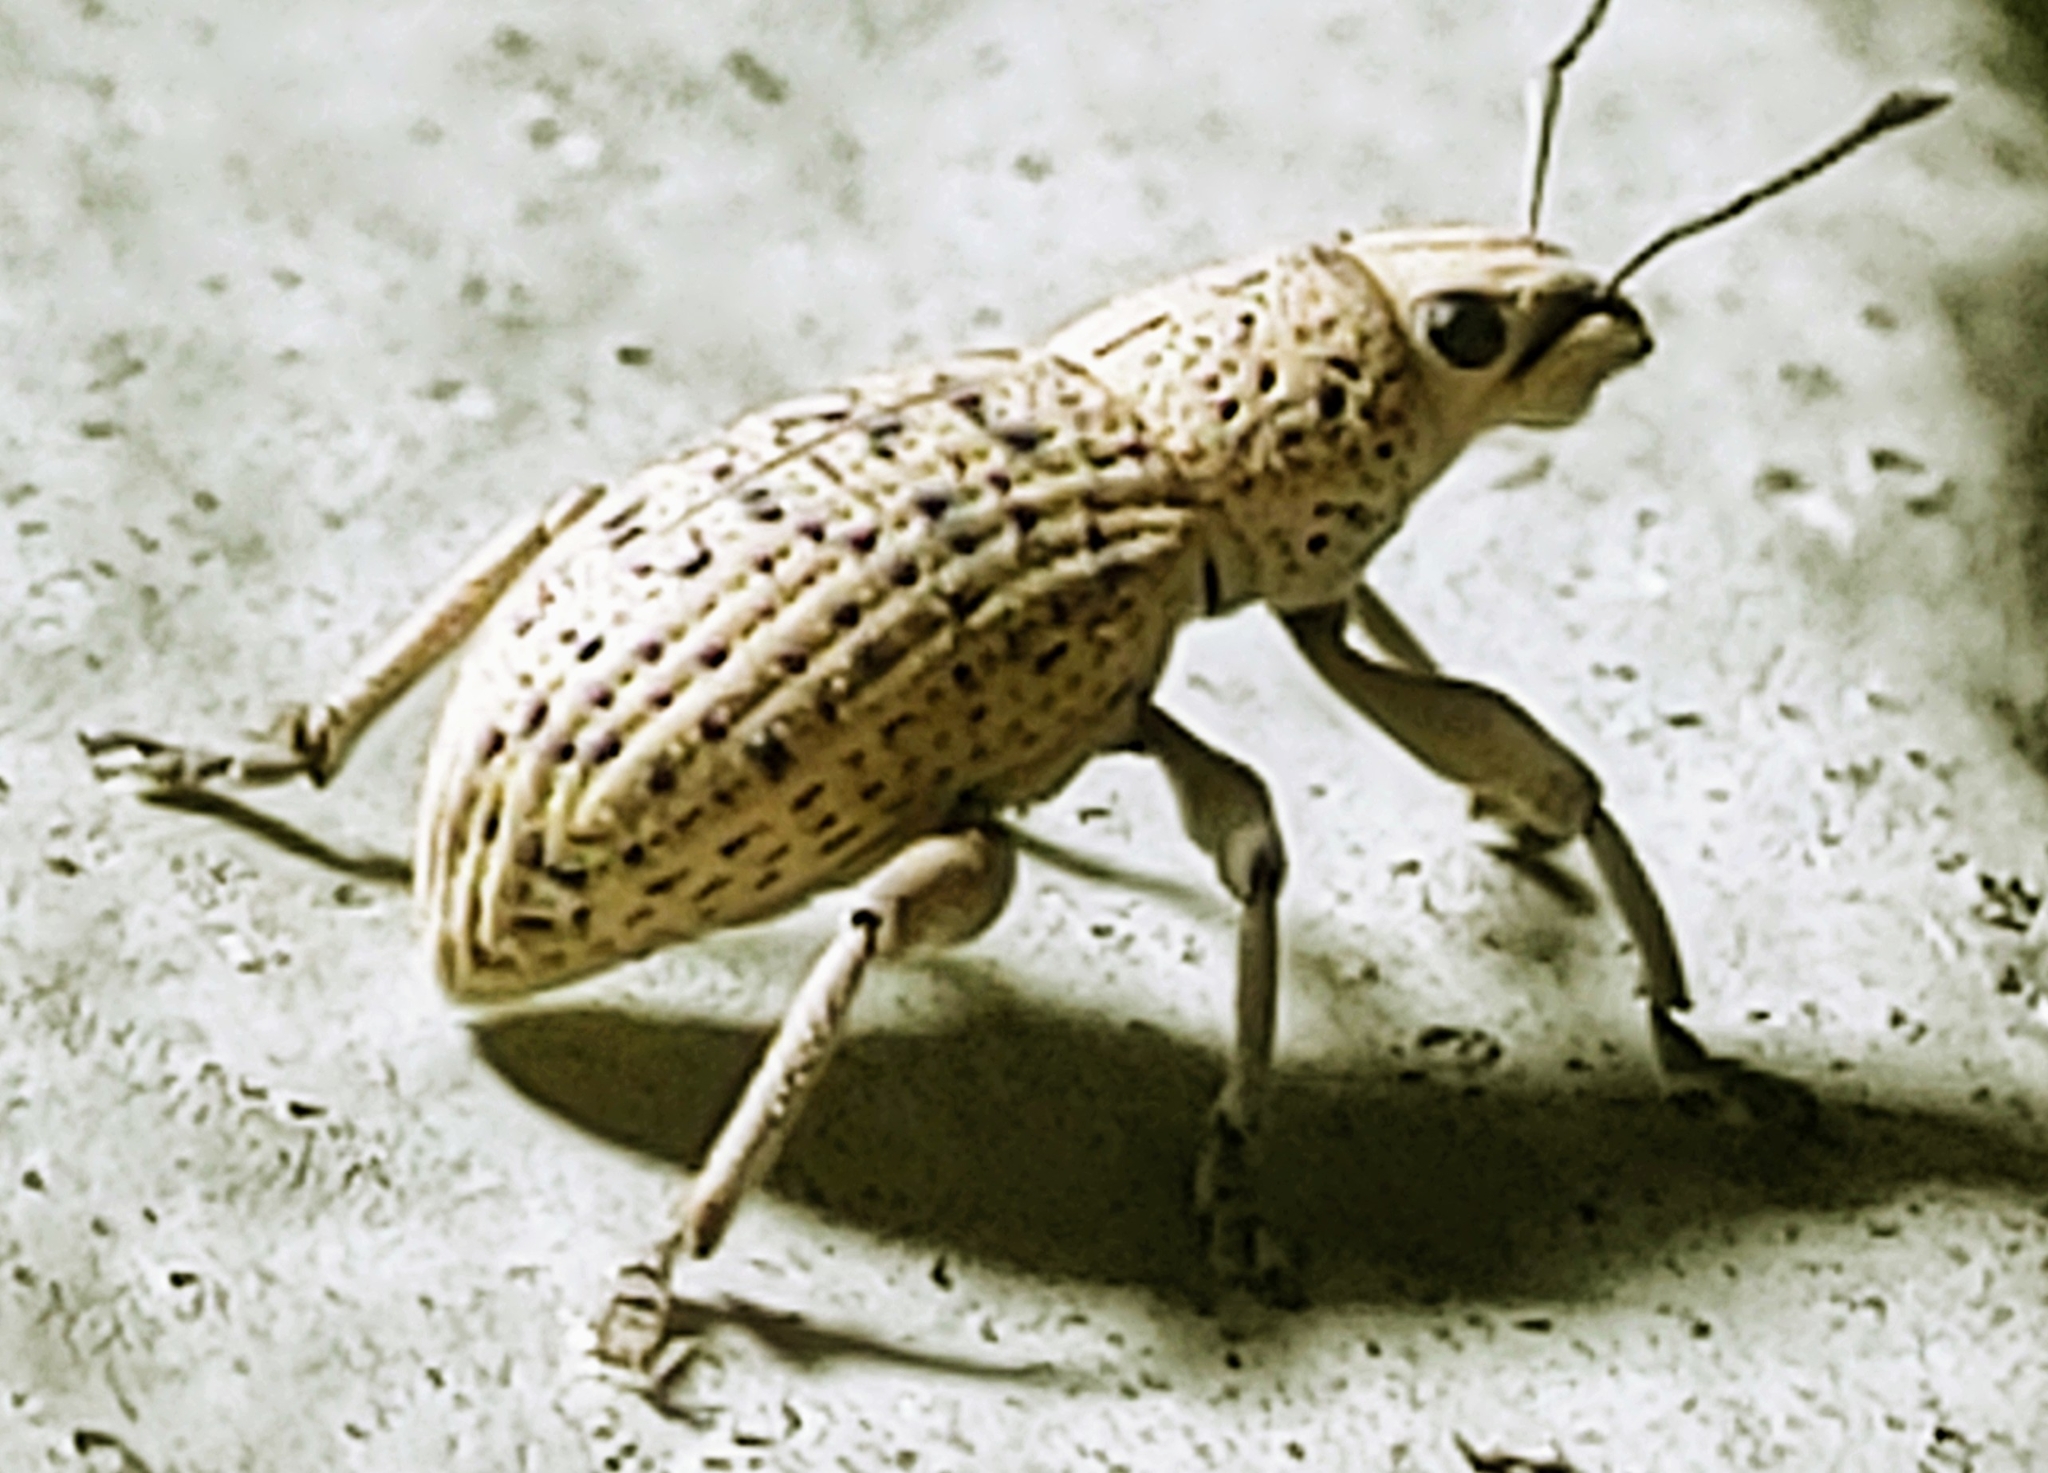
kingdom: Animalia
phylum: Arthropoda
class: Insecta
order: Coleoptera
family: Curculionidae
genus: Artipus
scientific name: Artipus floridanus
